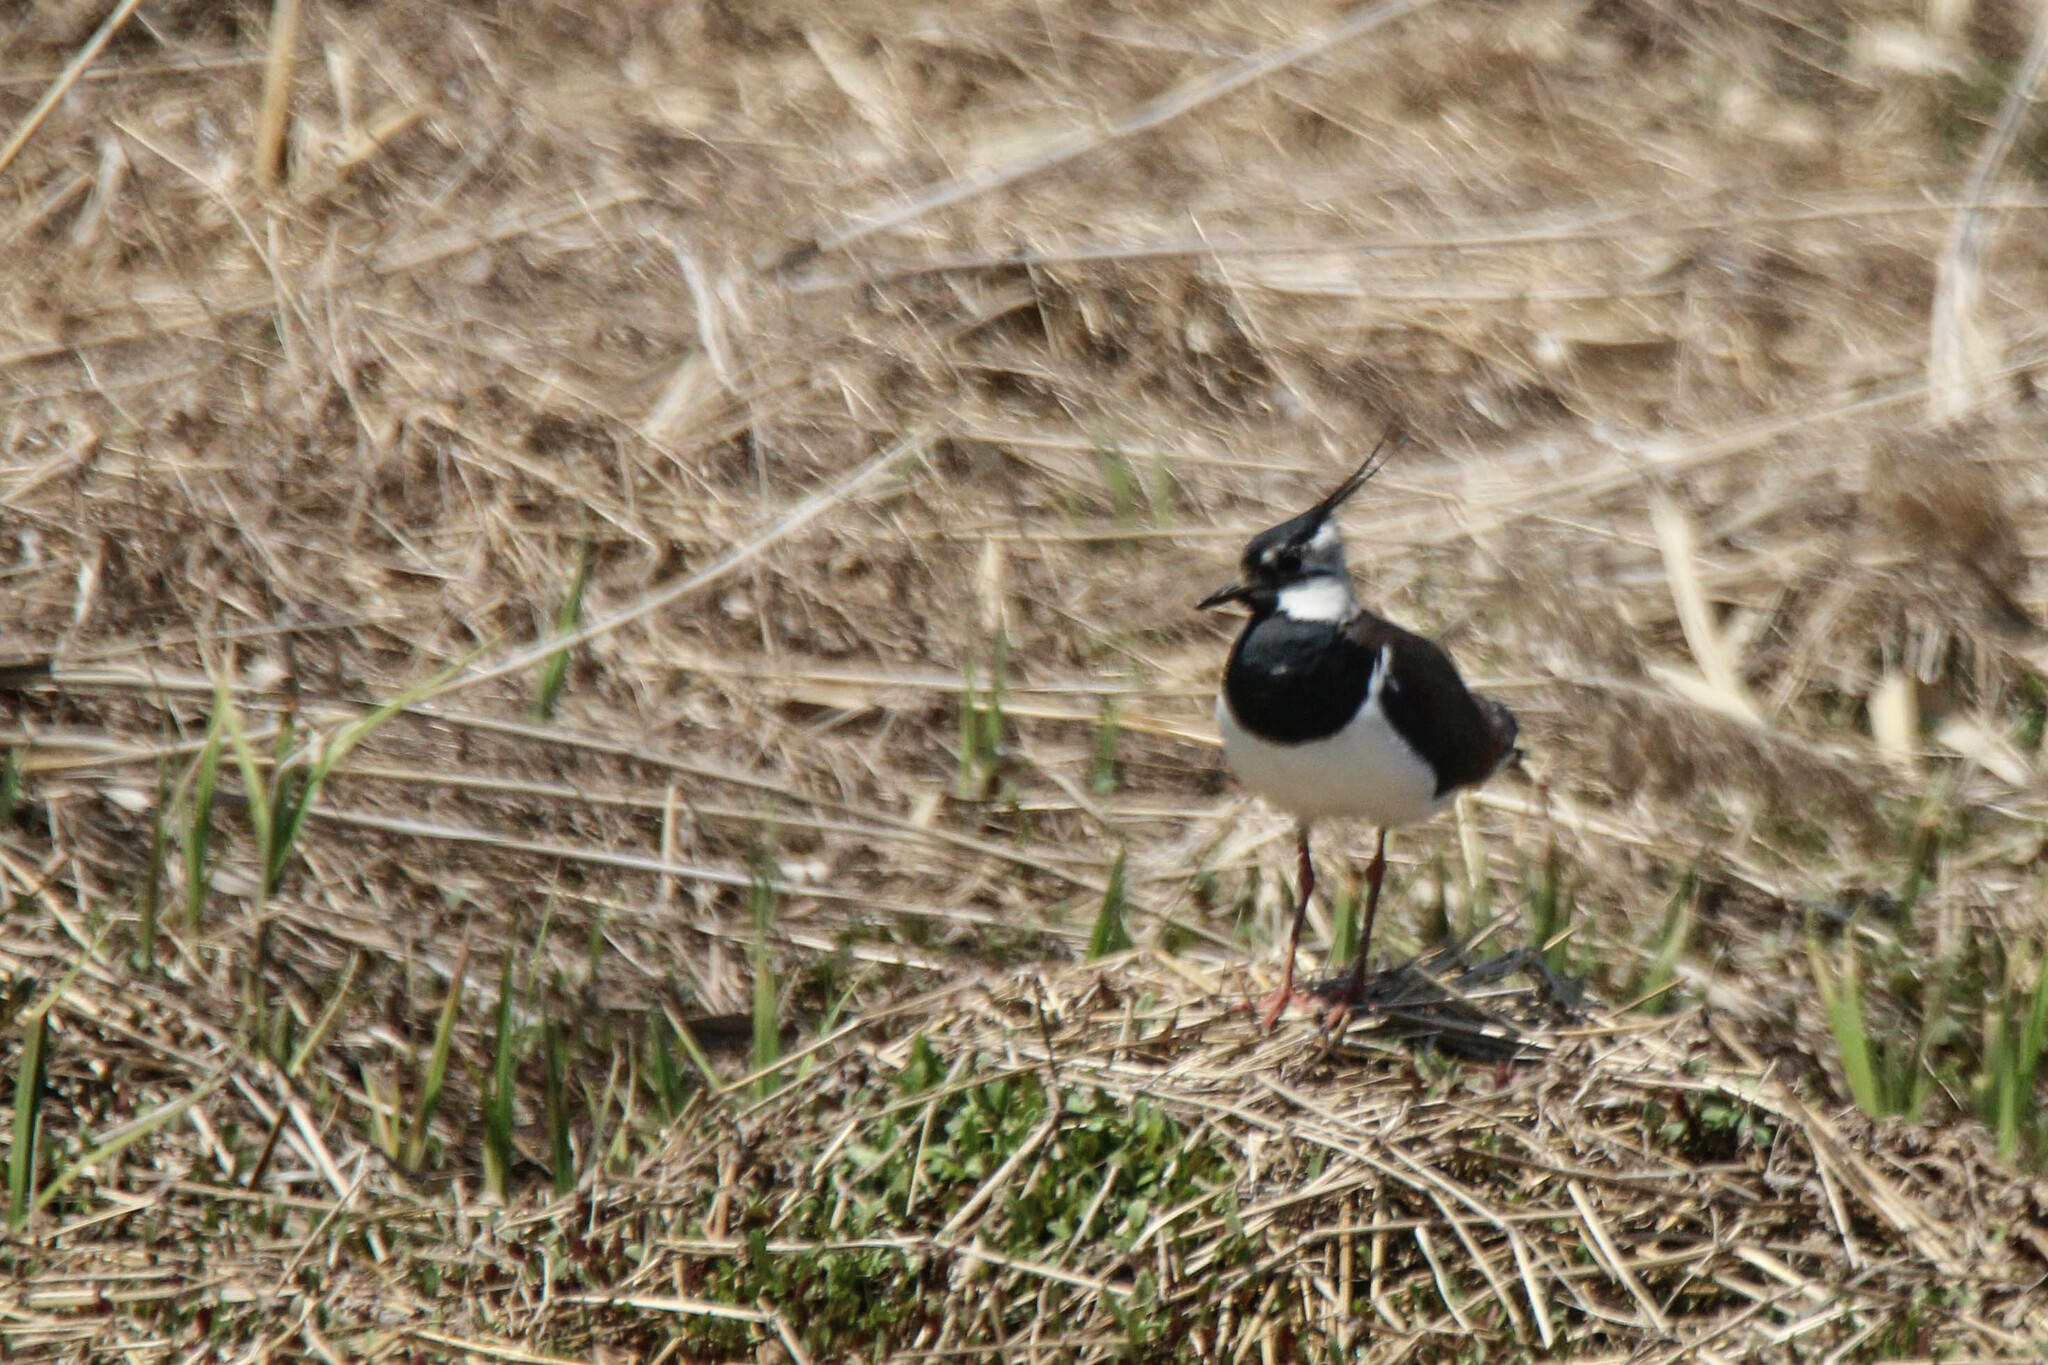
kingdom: Animalia
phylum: Chordata
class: Aves
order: Charadriiformes
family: Charadriidae
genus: Vanellus
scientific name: Vanellus vanellus
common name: Northern lapwing
